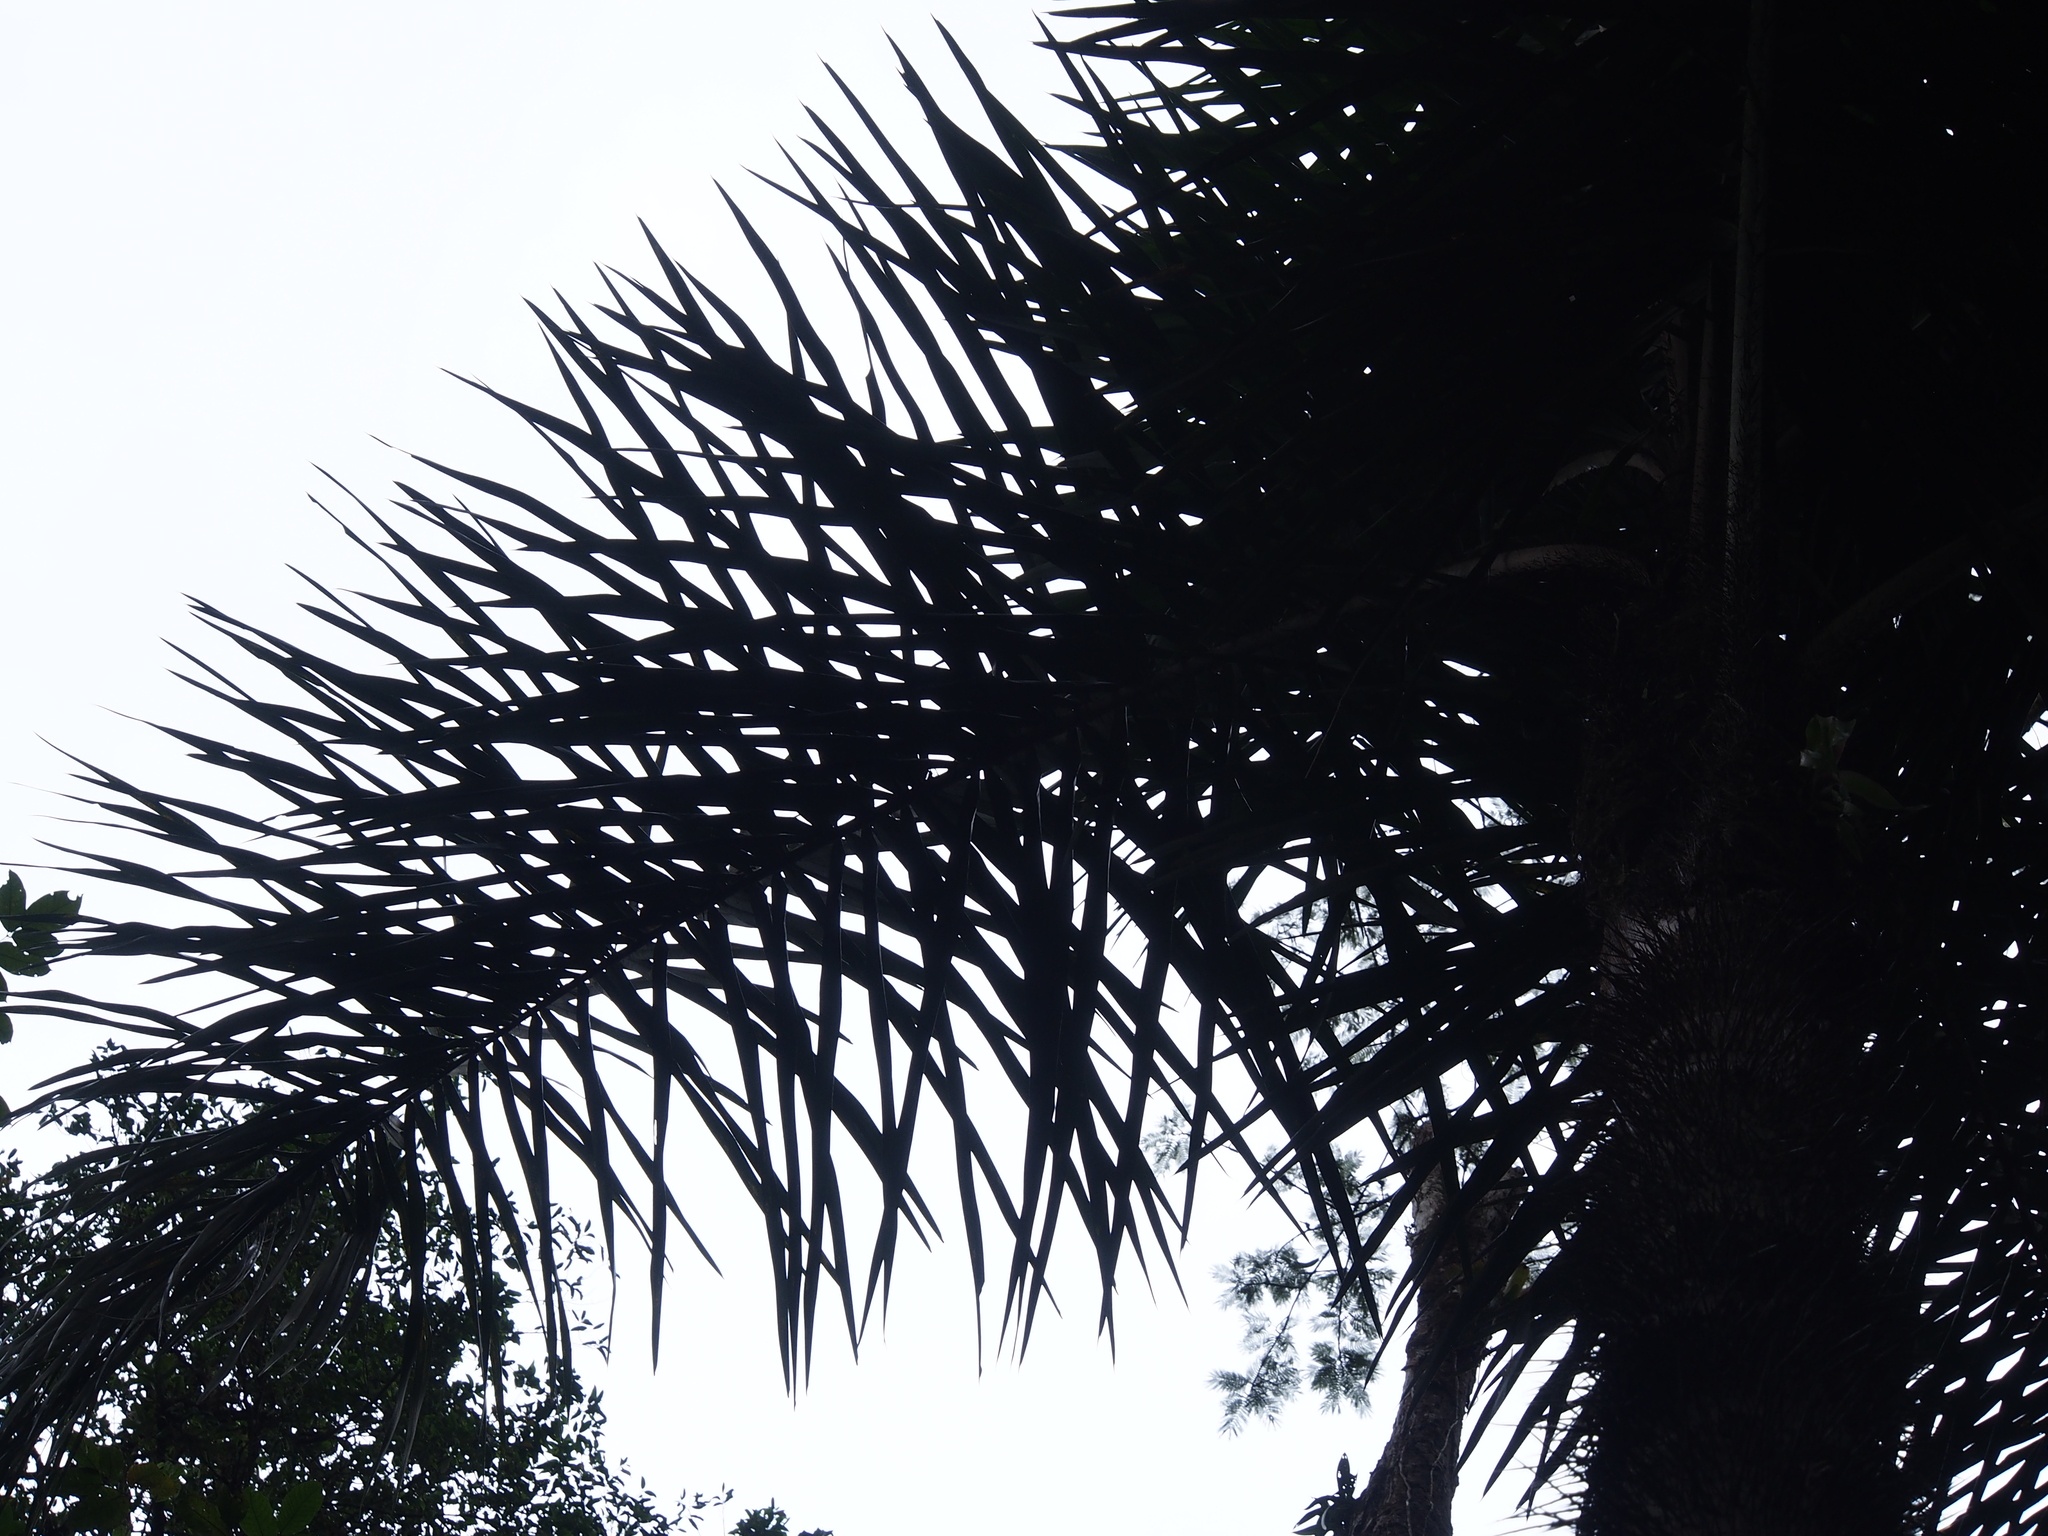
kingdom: Plantae
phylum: Tracheophyta
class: Liliopsida
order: Arecales
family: Arecaceae
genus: Astrocaryum
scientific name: Astrocaryum confertum
